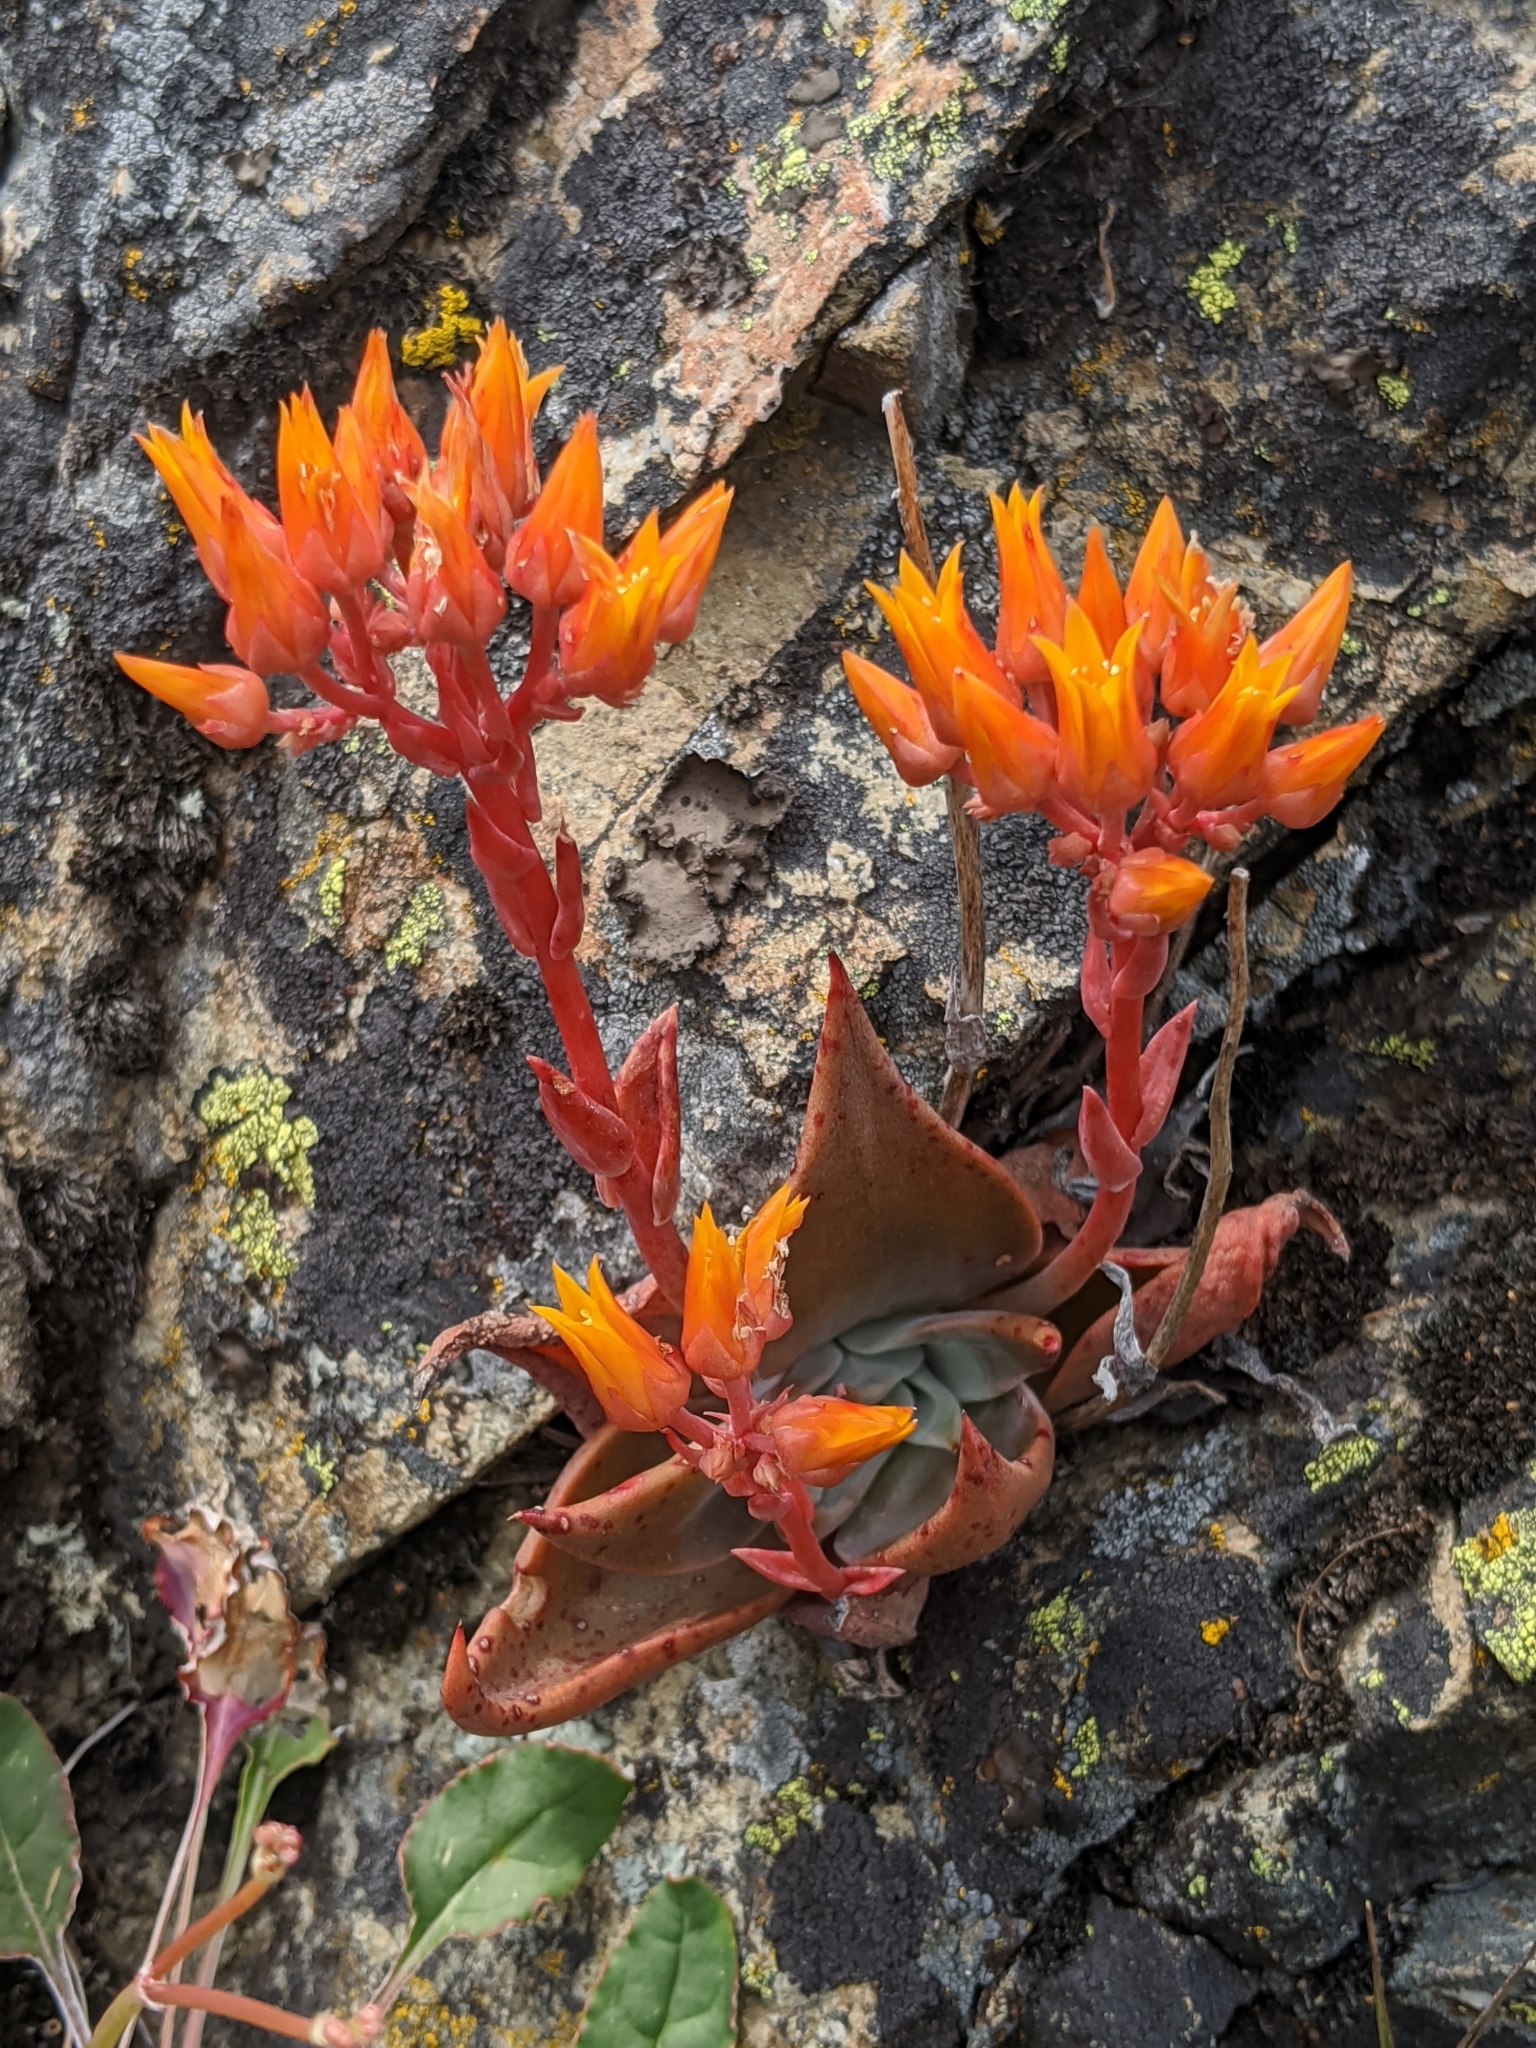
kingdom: Plantae
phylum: Tracheophyta
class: Magnoliopsida
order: Saxifragales
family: Crassulaceae
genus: Dudleya
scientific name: Dudleya cymosa
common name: Canyon dudleya
